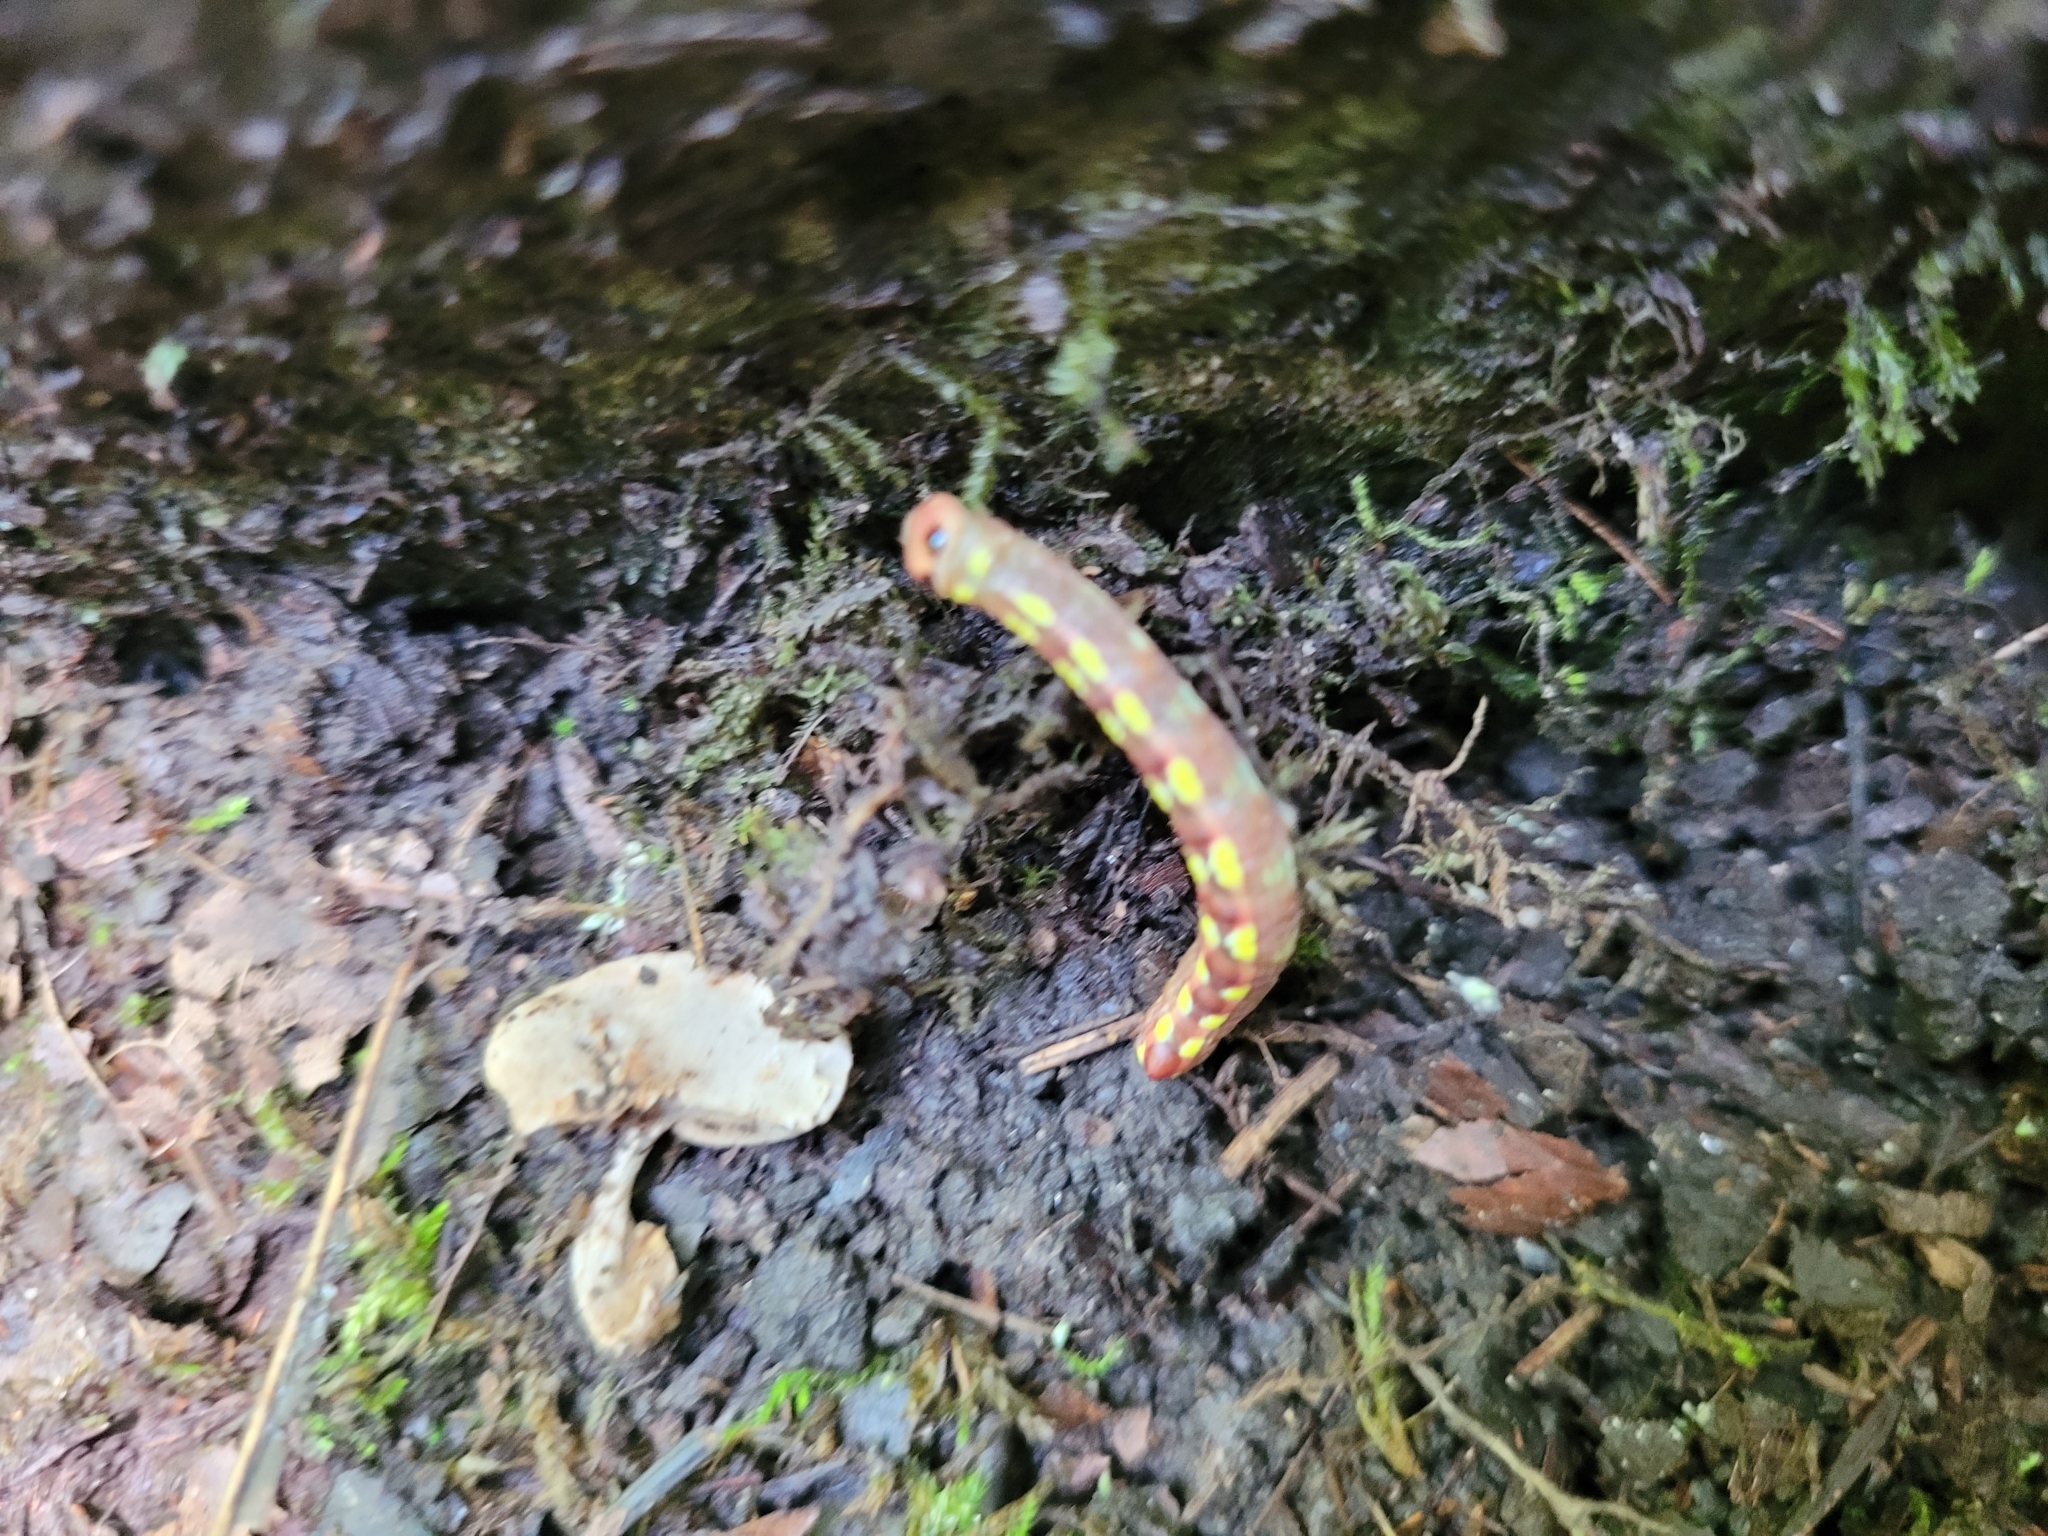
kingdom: Animalia
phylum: Arthropoda
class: Insecta
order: Lepidoptera
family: Notodontidae
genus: Ellida
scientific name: Ellida caniplaga
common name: Linden prominent
